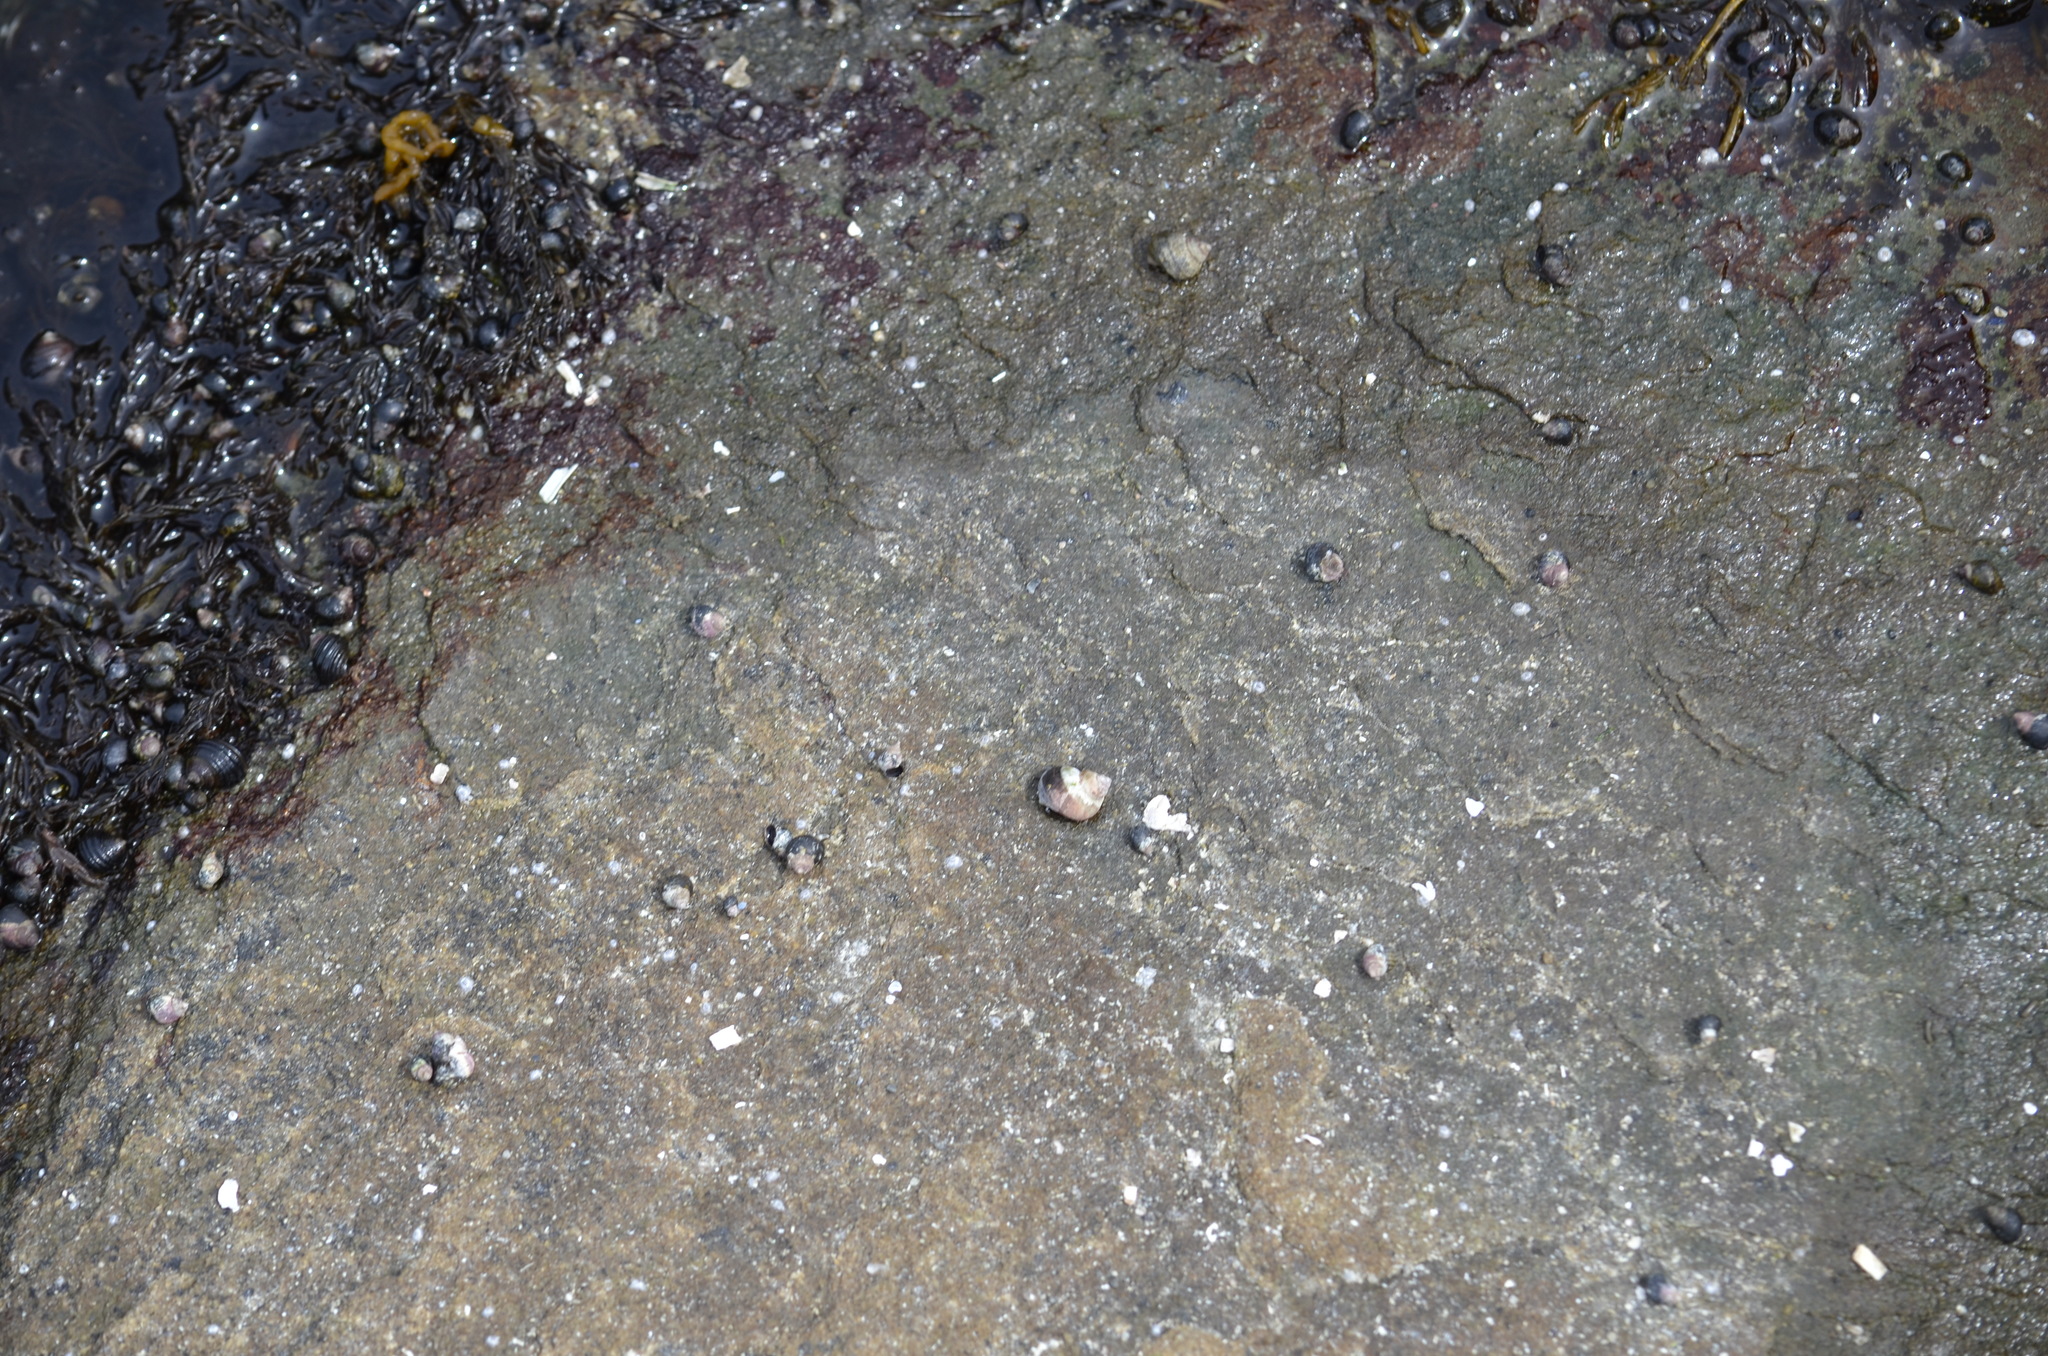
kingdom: Animalia
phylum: Mollusca
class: Gastropoda
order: Littorinimorpha
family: Littorinidae
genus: Littorina
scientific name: Littorina scutulata
